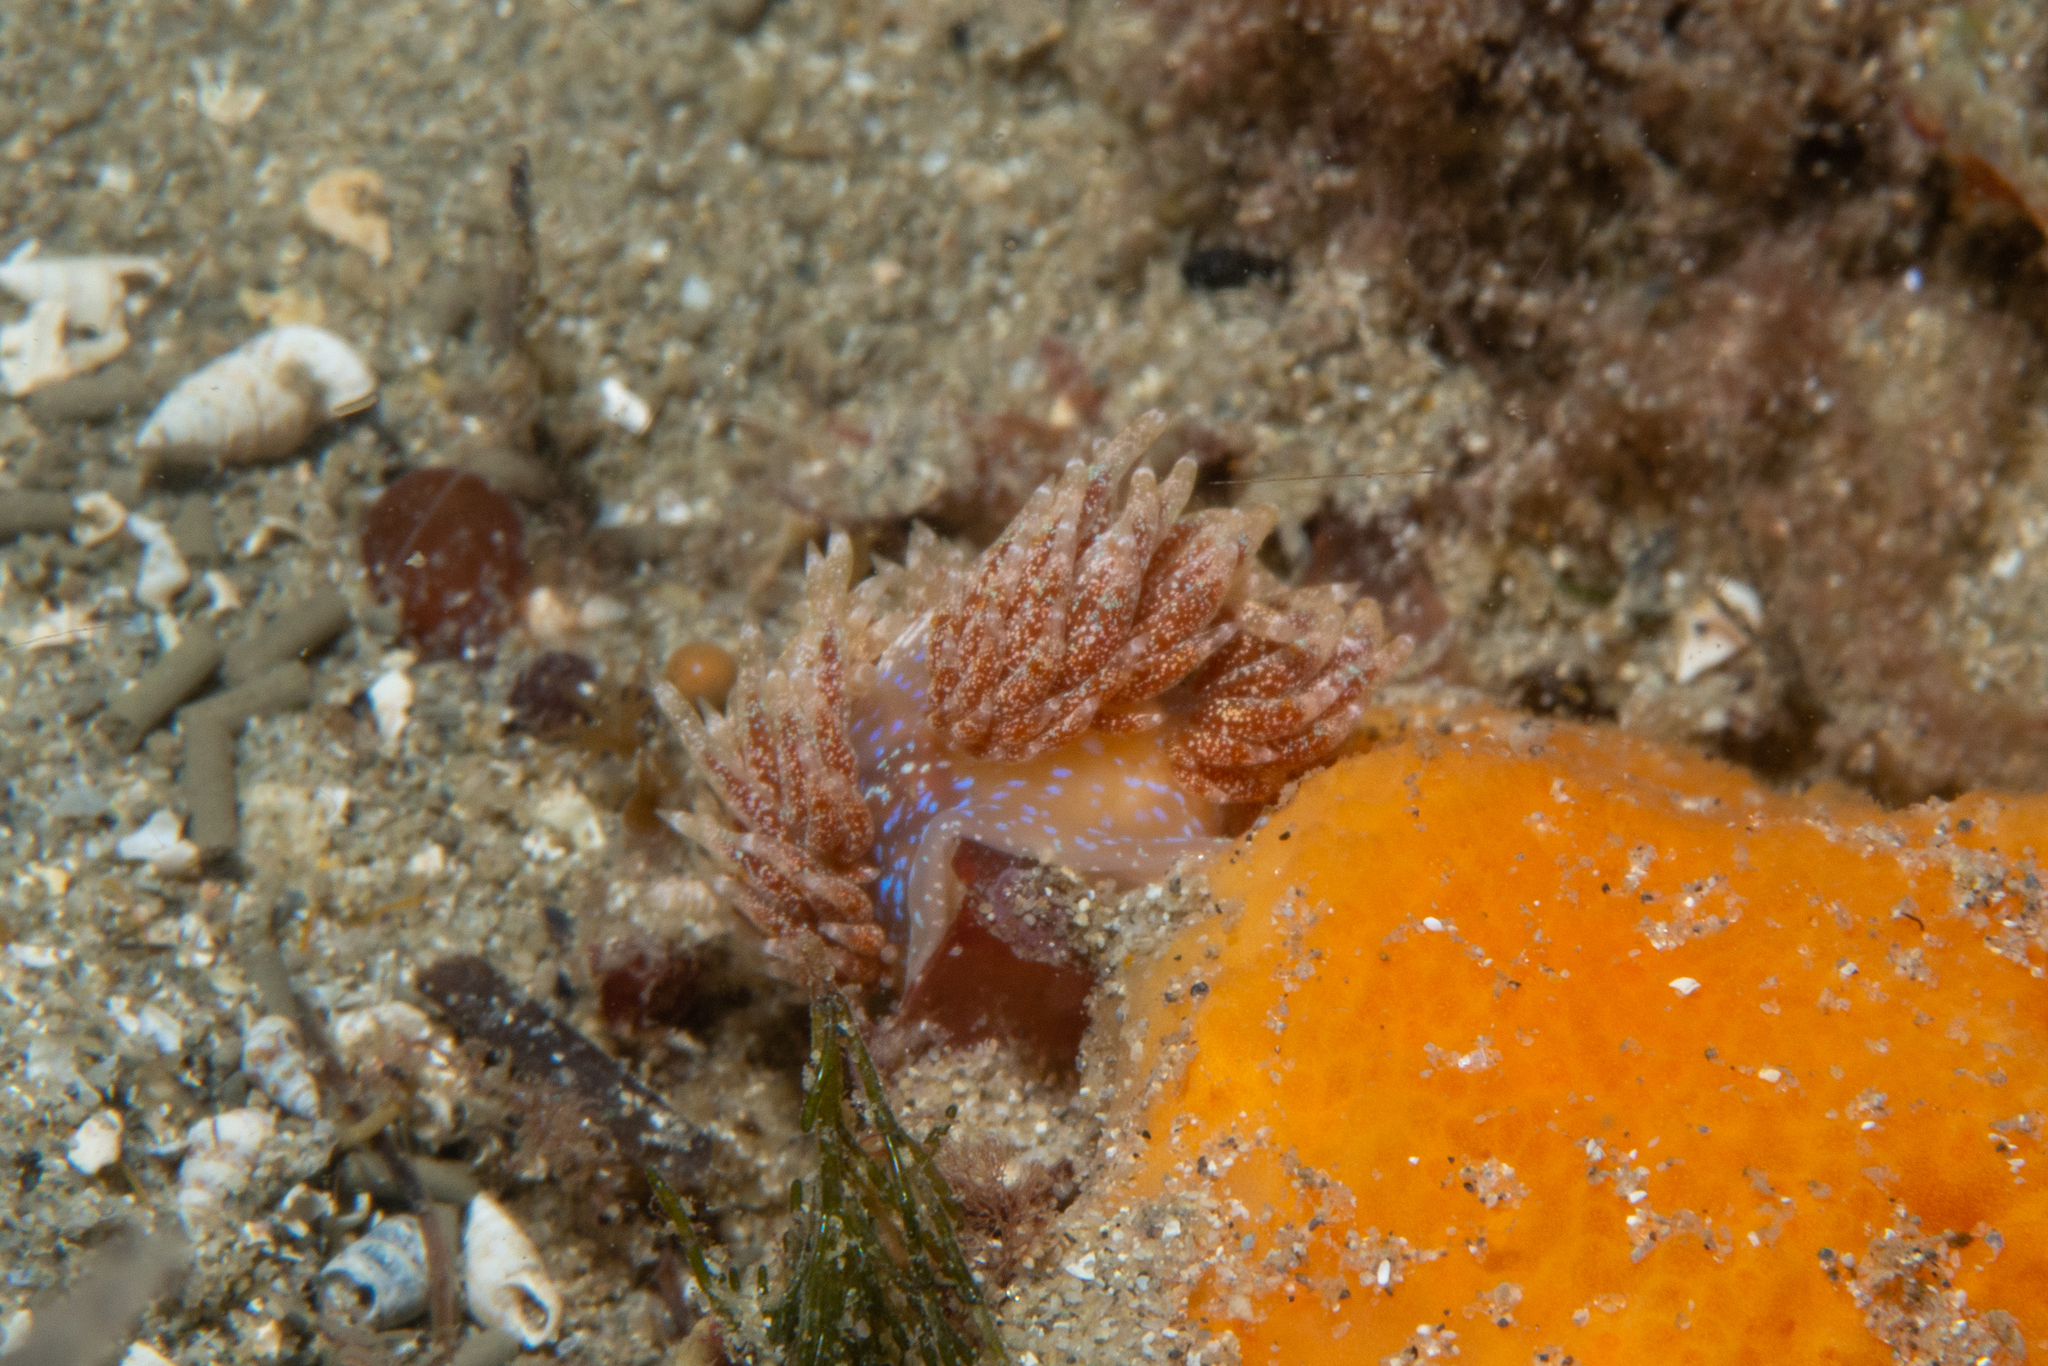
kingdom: Animalia
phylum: Mollusca
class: Gastropoda
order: Nudibranchia
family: Facelinidae
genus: Austraeolis
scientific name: Austraeolis ornata
